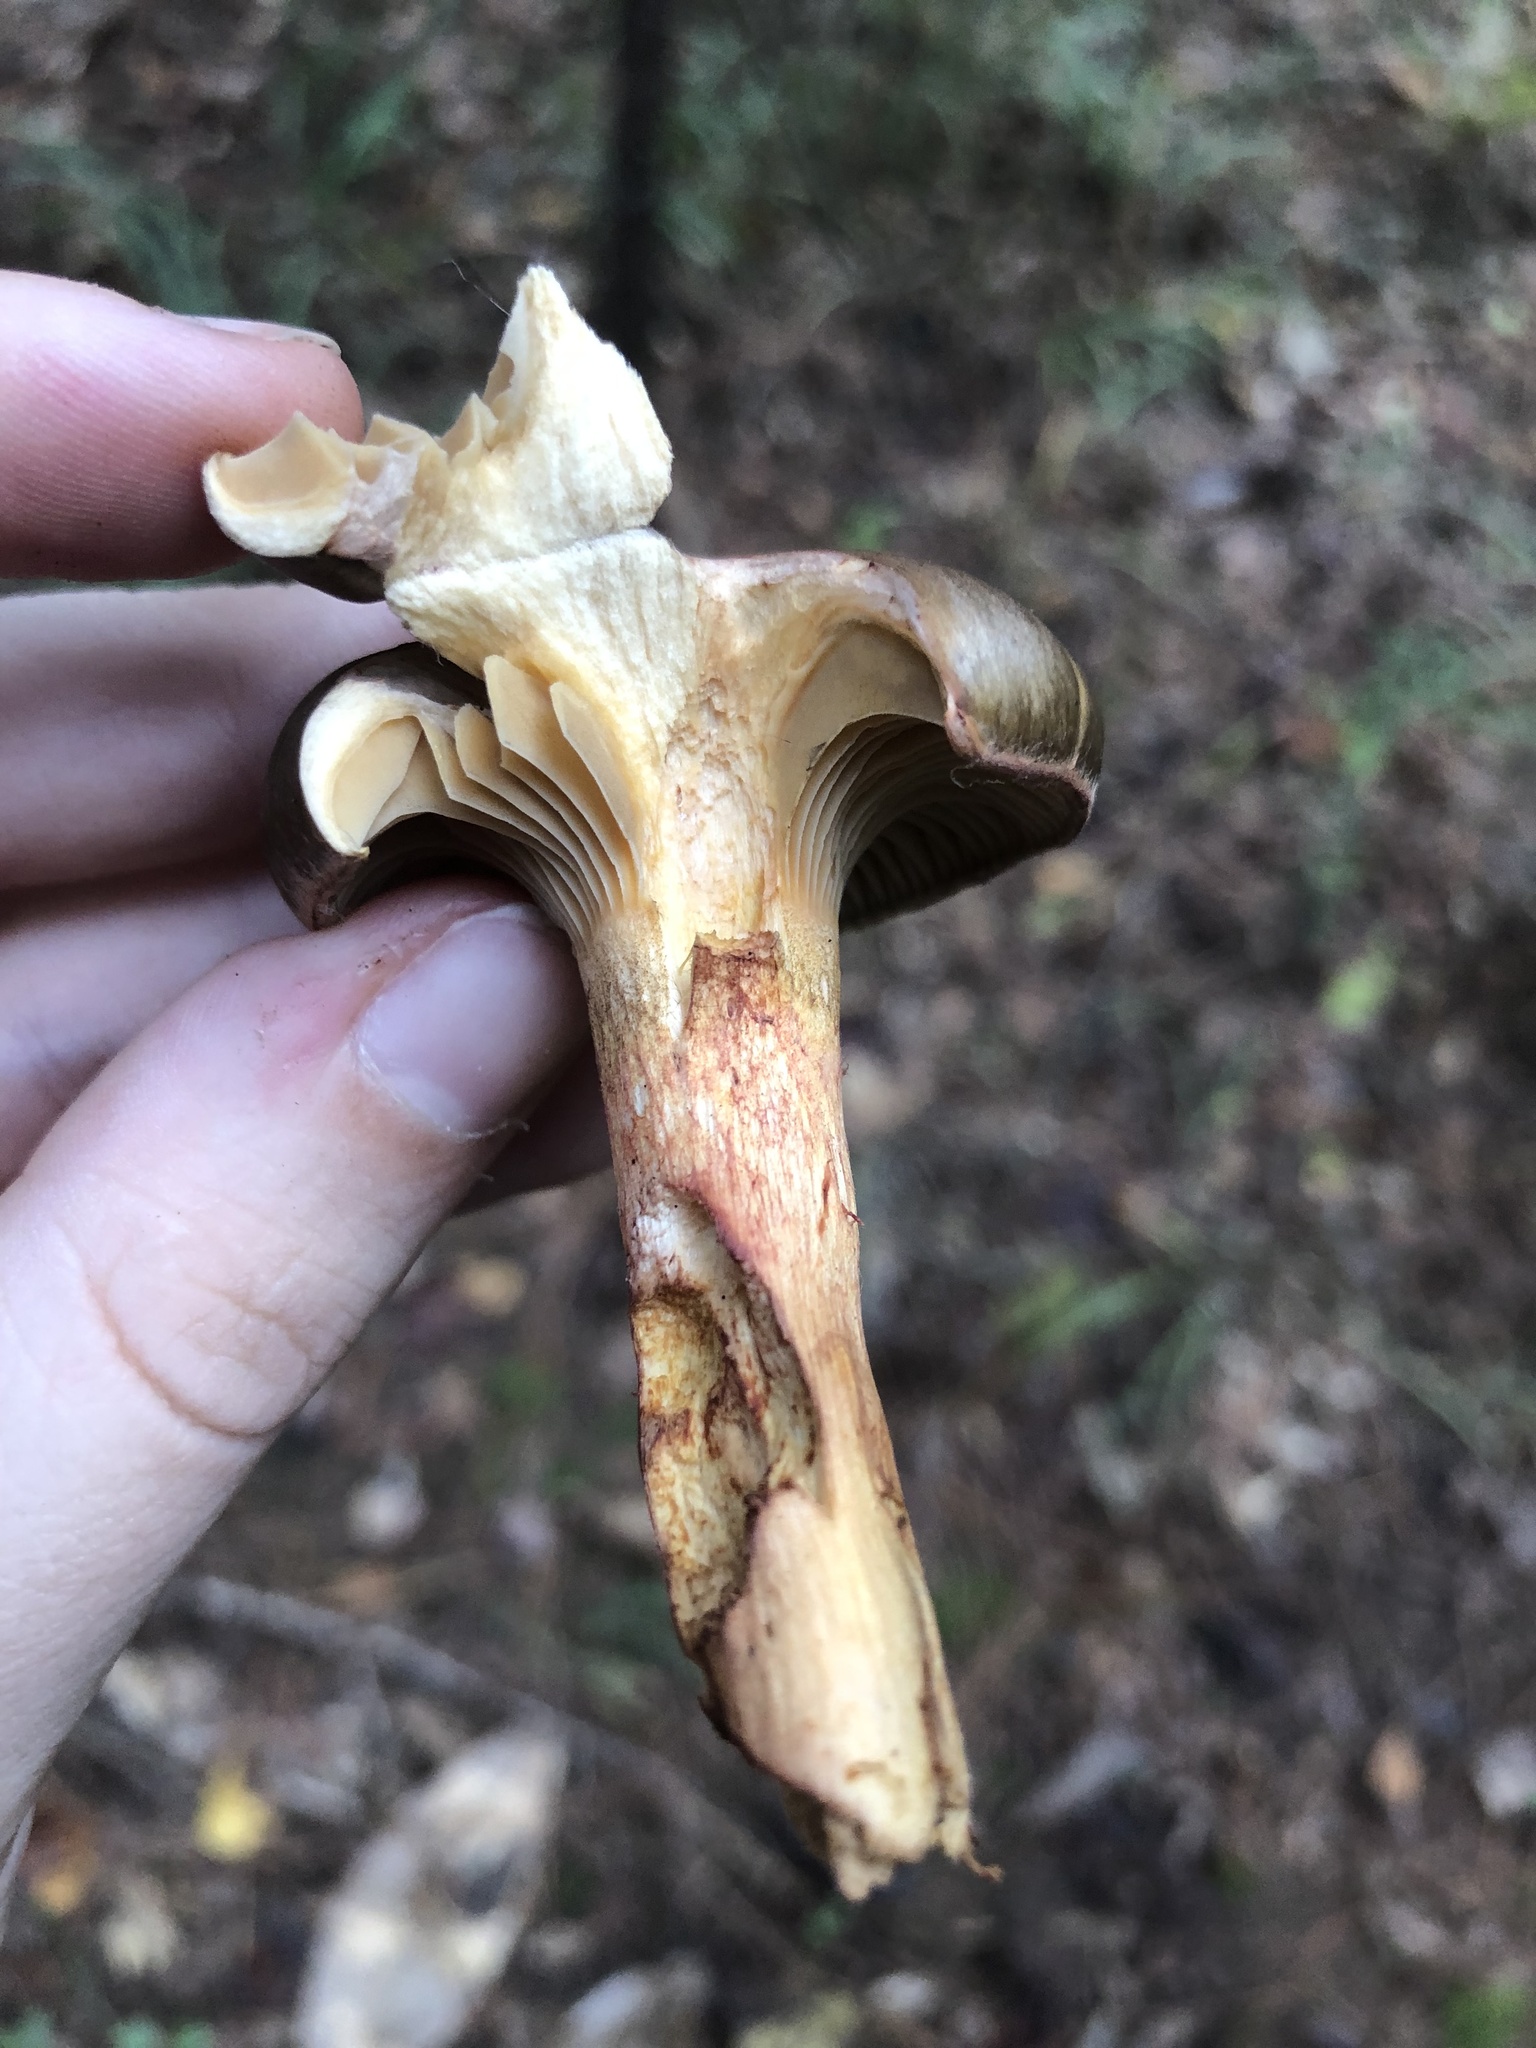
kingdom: Fungi
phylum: Basidiomycota
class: Agaricomycetes
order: Boletales
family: Gomphidiaceae
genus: Chroogomphus
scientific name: Chroogomphus vinicolor
